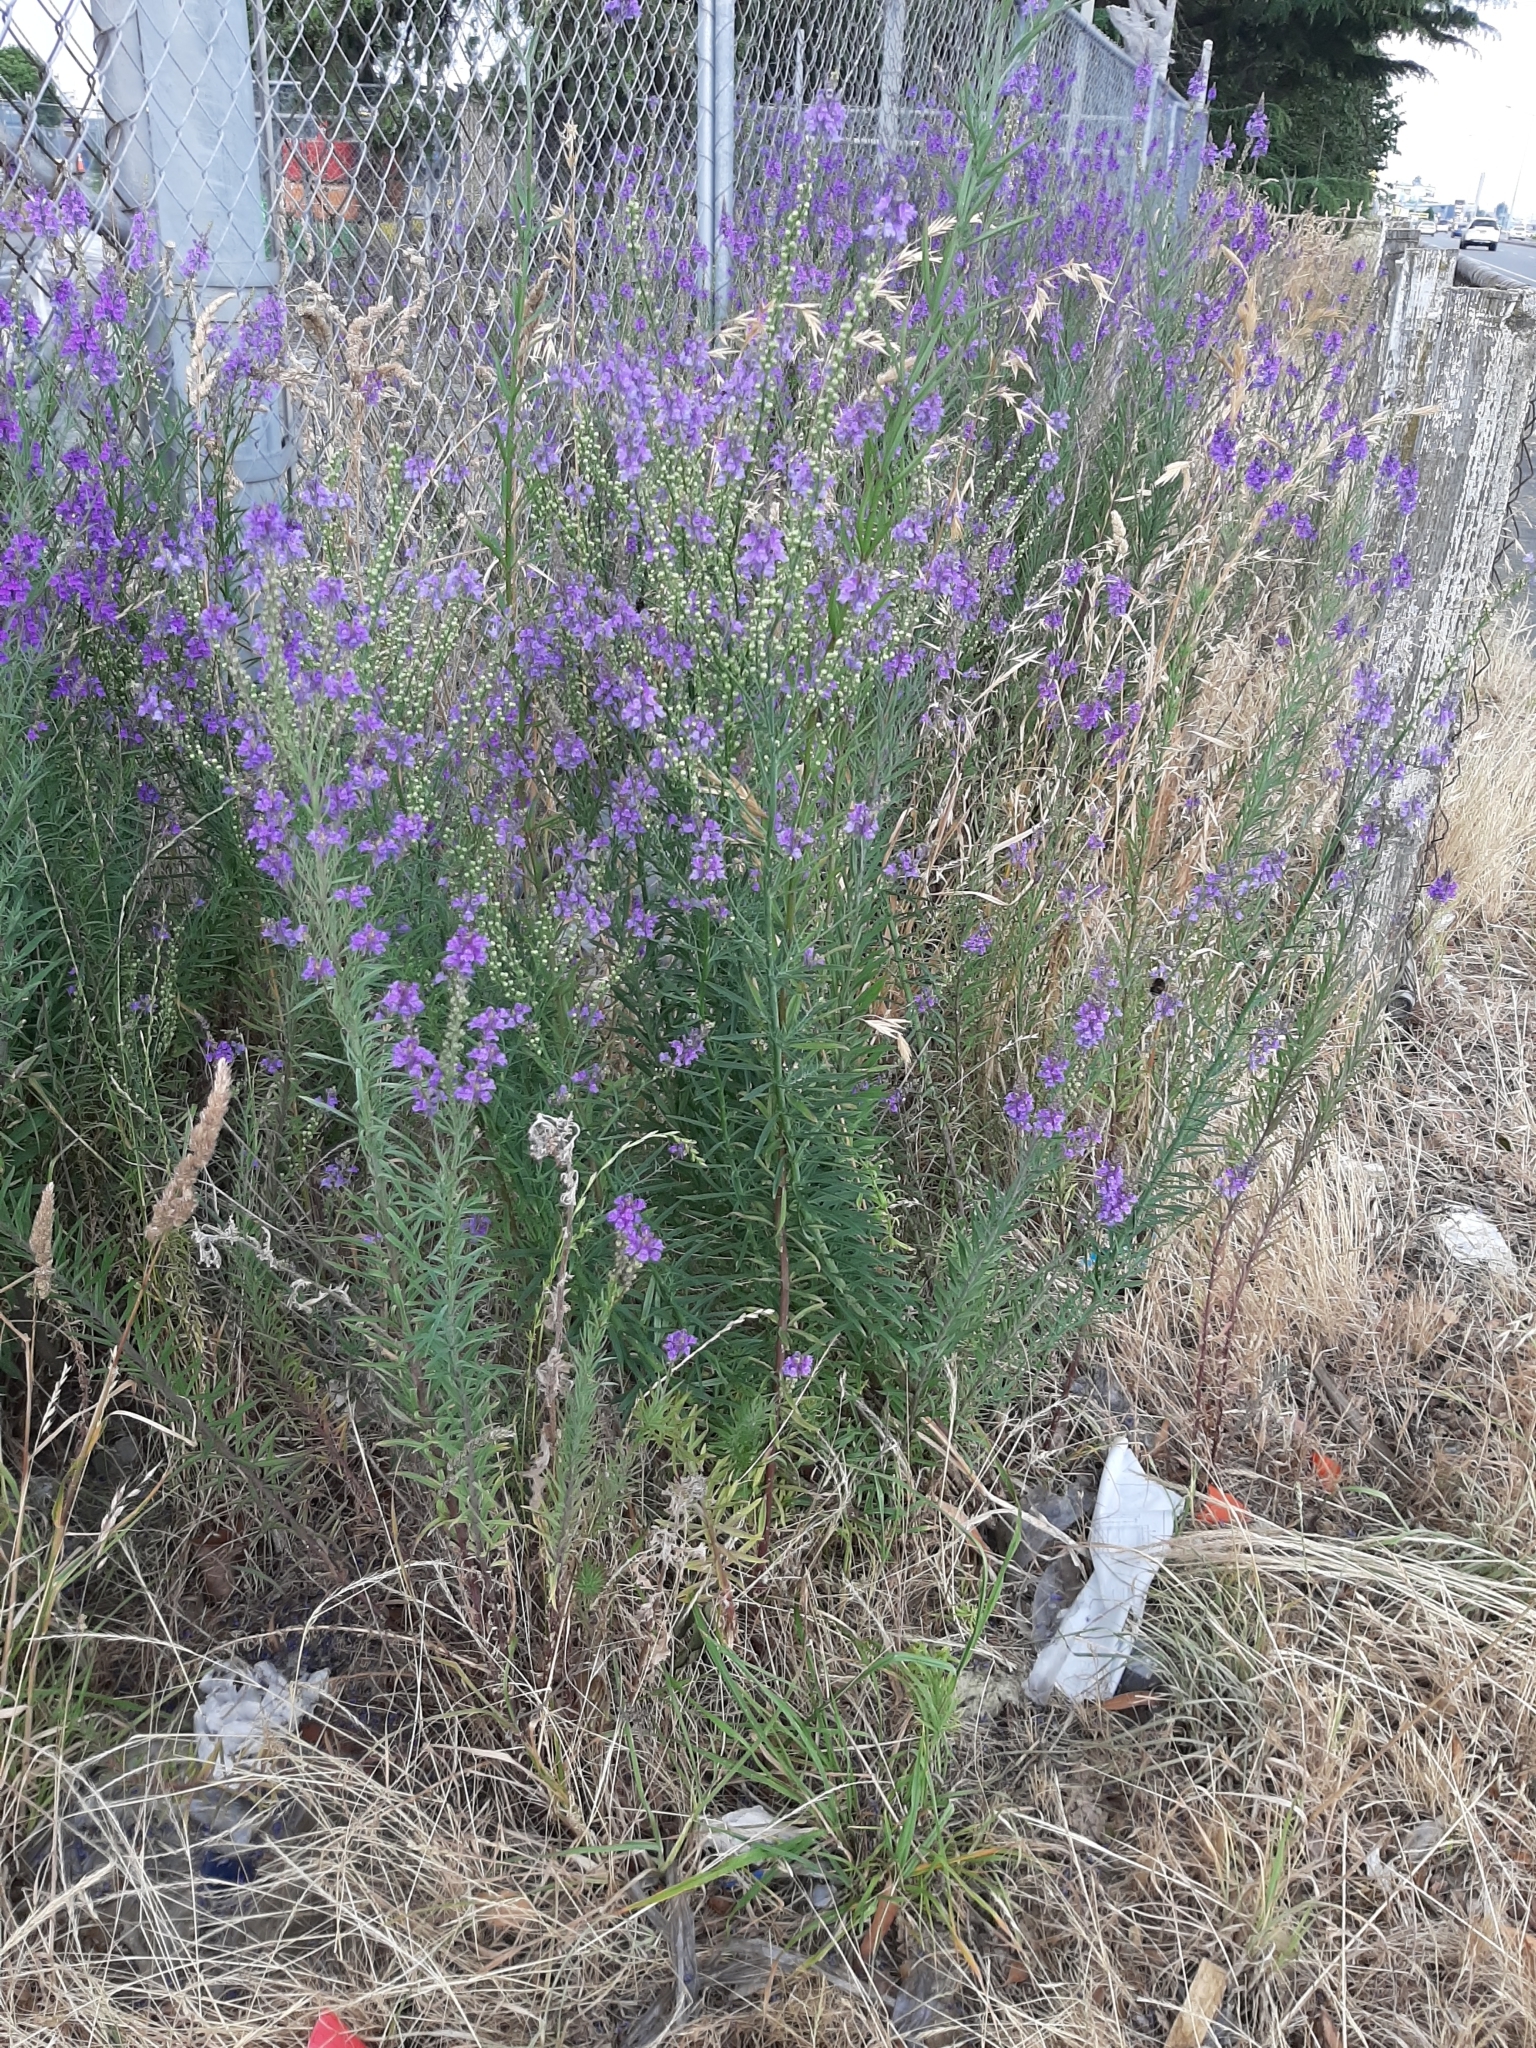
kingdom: Plantae
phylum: Tracheophyta
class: Magnoliopsida
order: Lamiales
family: Plantaginaceae
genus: Linaria
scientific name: Linaria purpurea
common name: Purple toadflax
